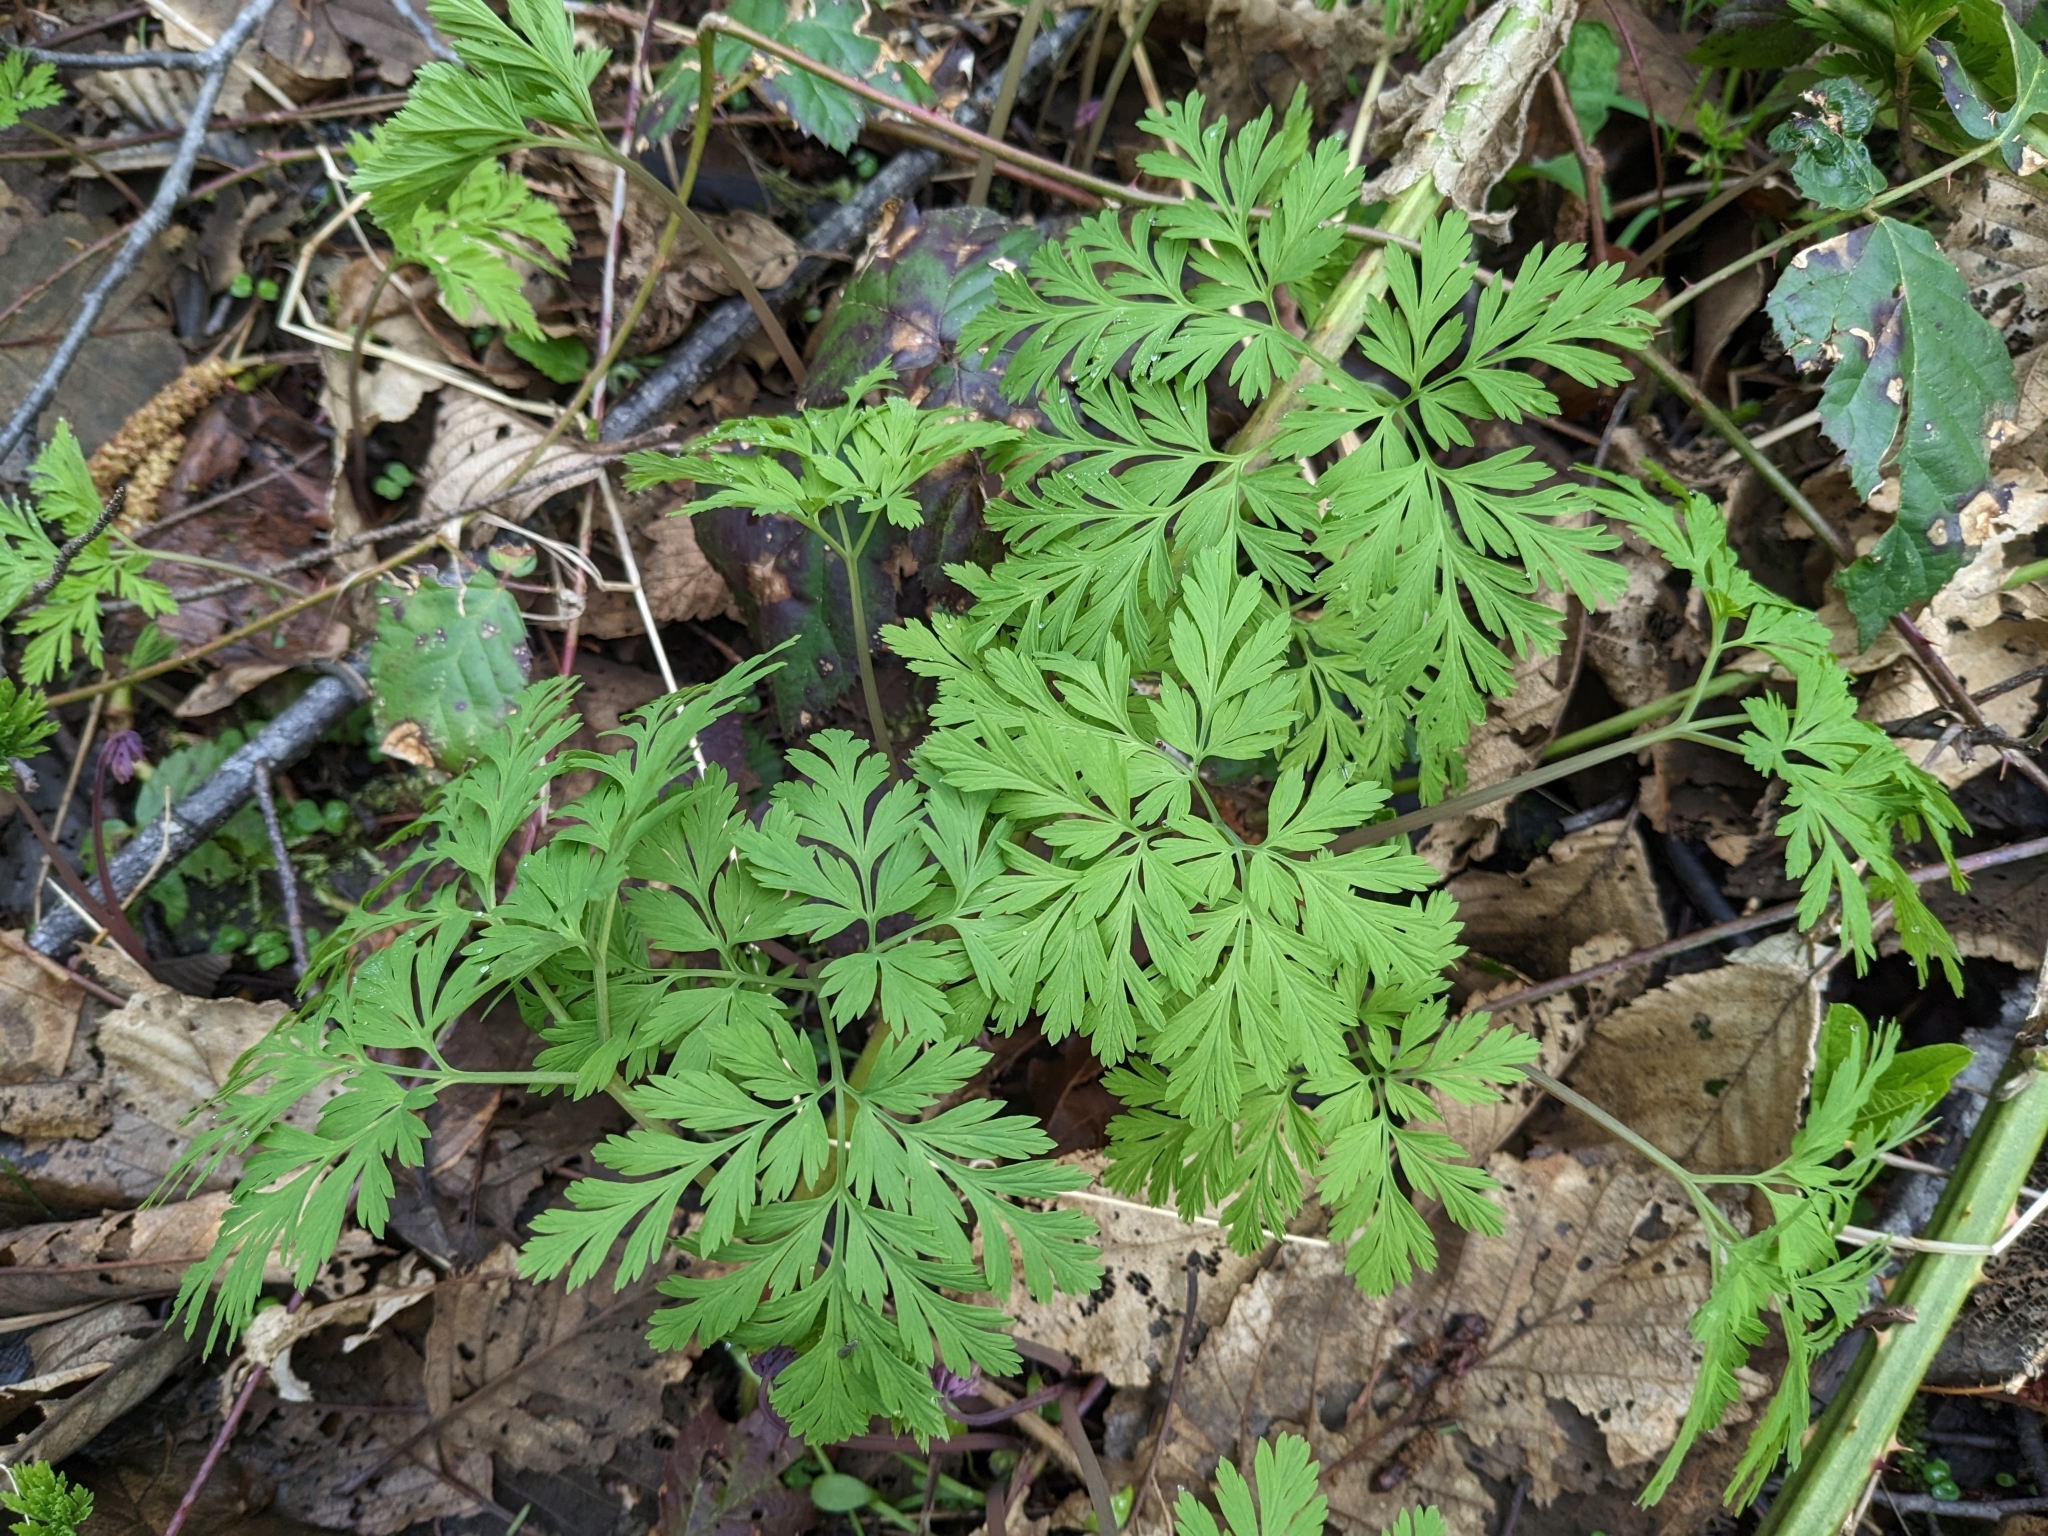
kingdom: Plantae
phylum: Tracheophyta
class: Magnoliopsida
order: Ranunculales
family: Papaveraceae
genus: Dicentra
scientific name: Dicentra formosa
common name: Bleeding-heart
